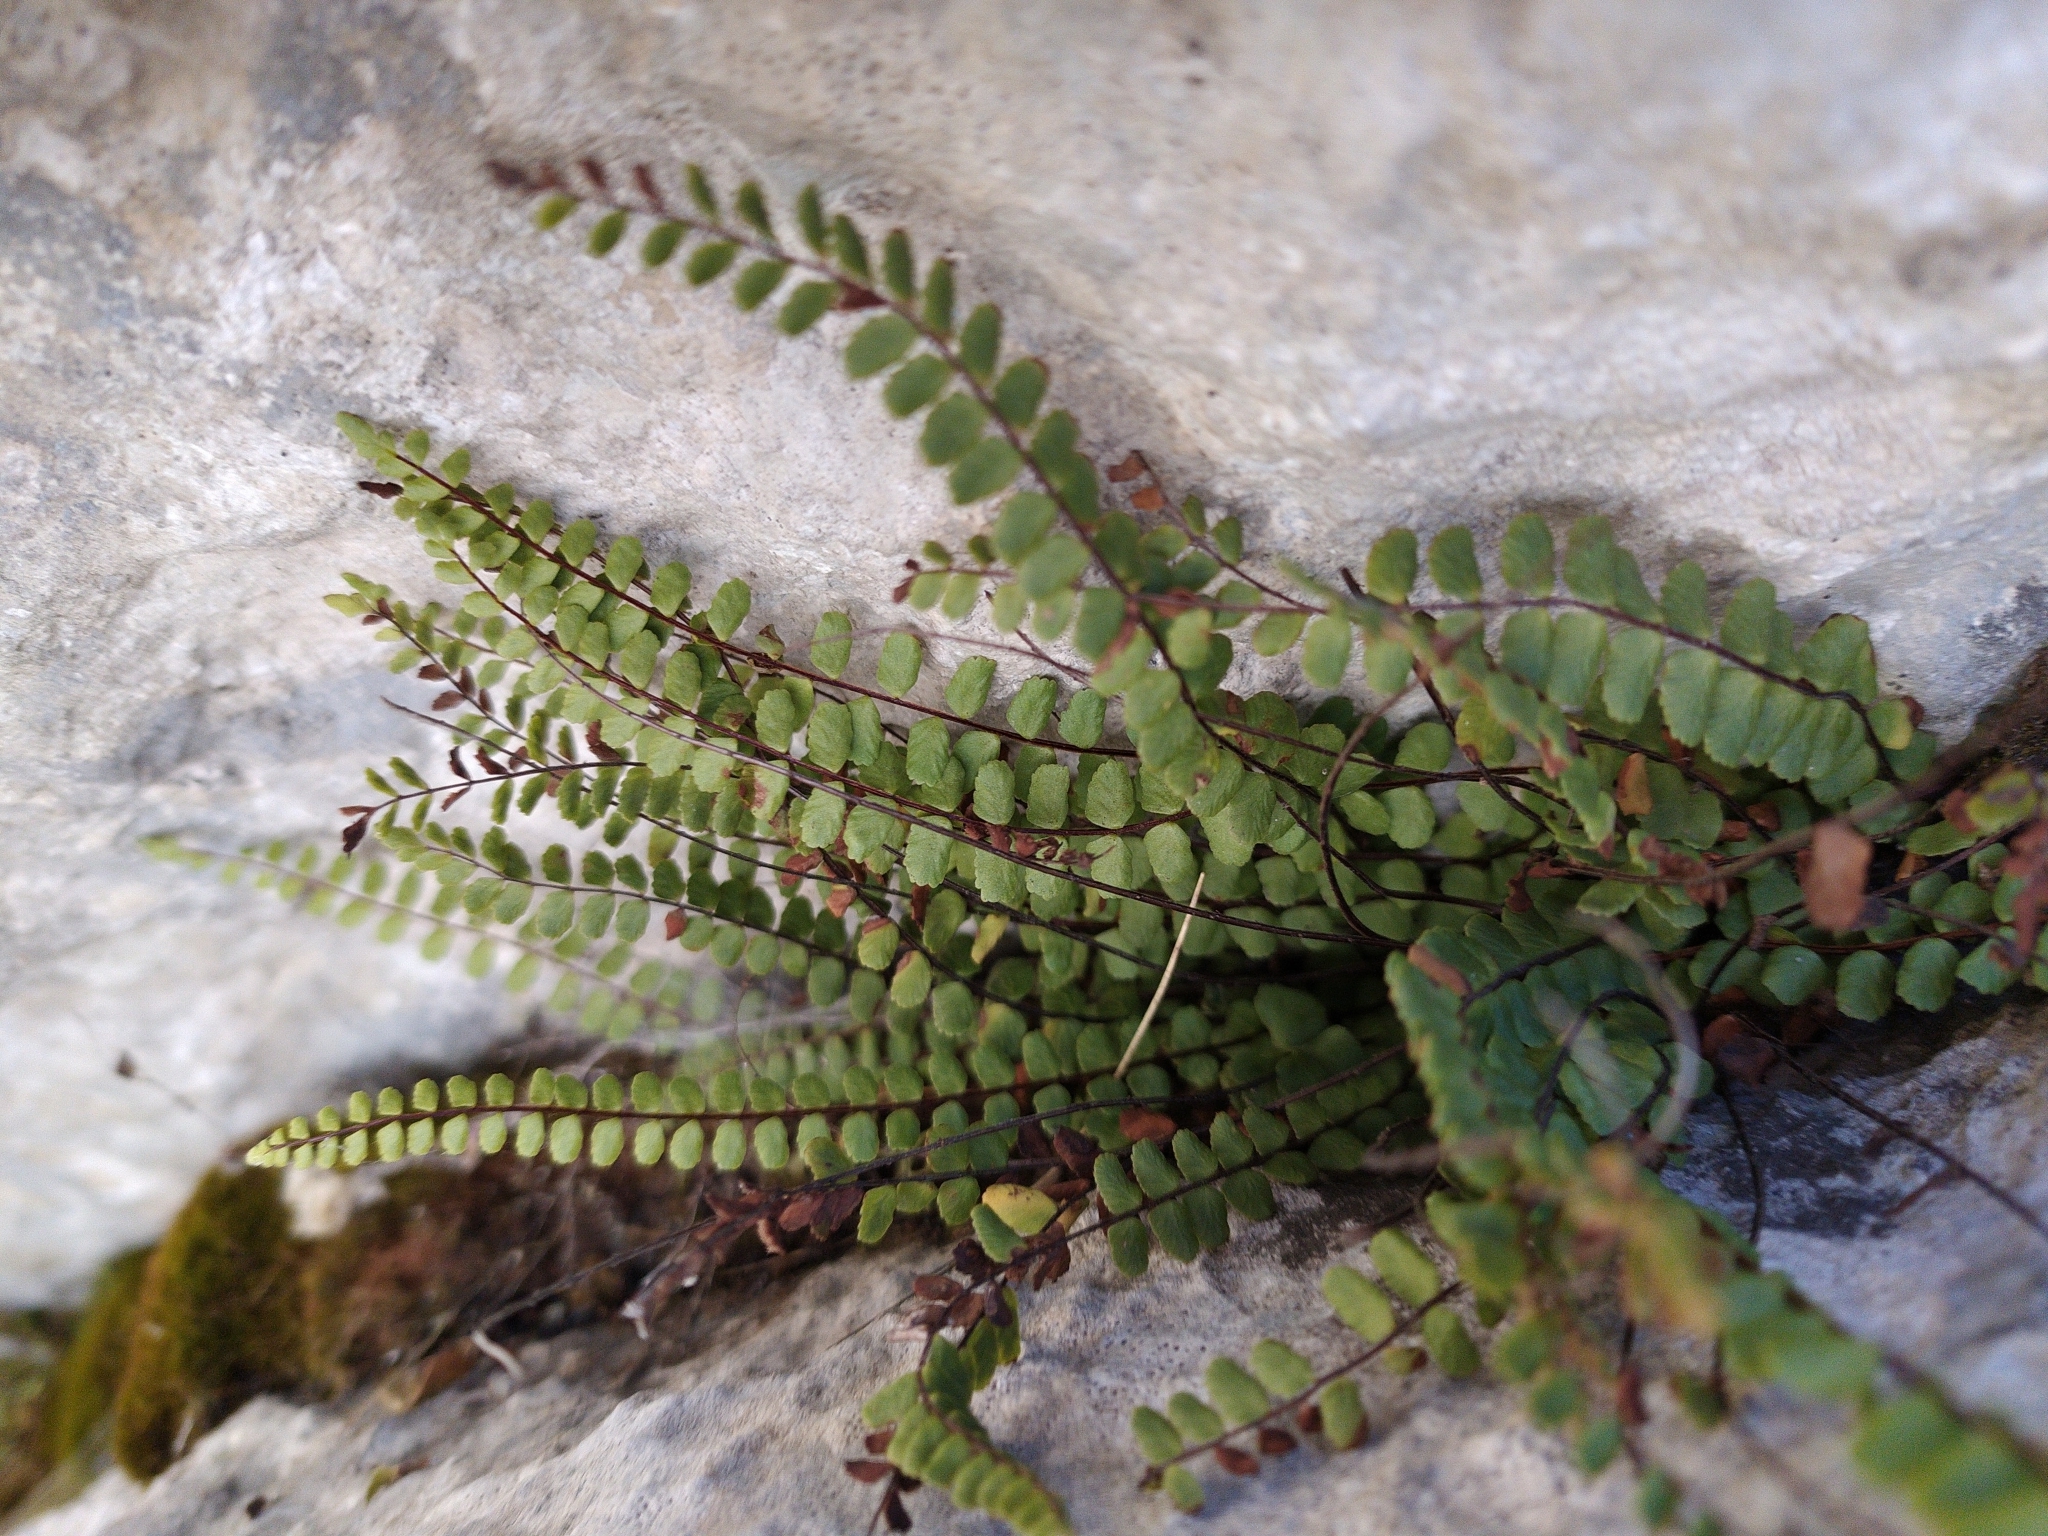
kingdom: Plantae
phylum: Tracheophyta
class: Polypodiopsida
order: Polypodiales
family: Aspleniaceae
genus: Asplenium
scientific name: Asplenium trichomanes
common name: Maidenhair spleenwort
